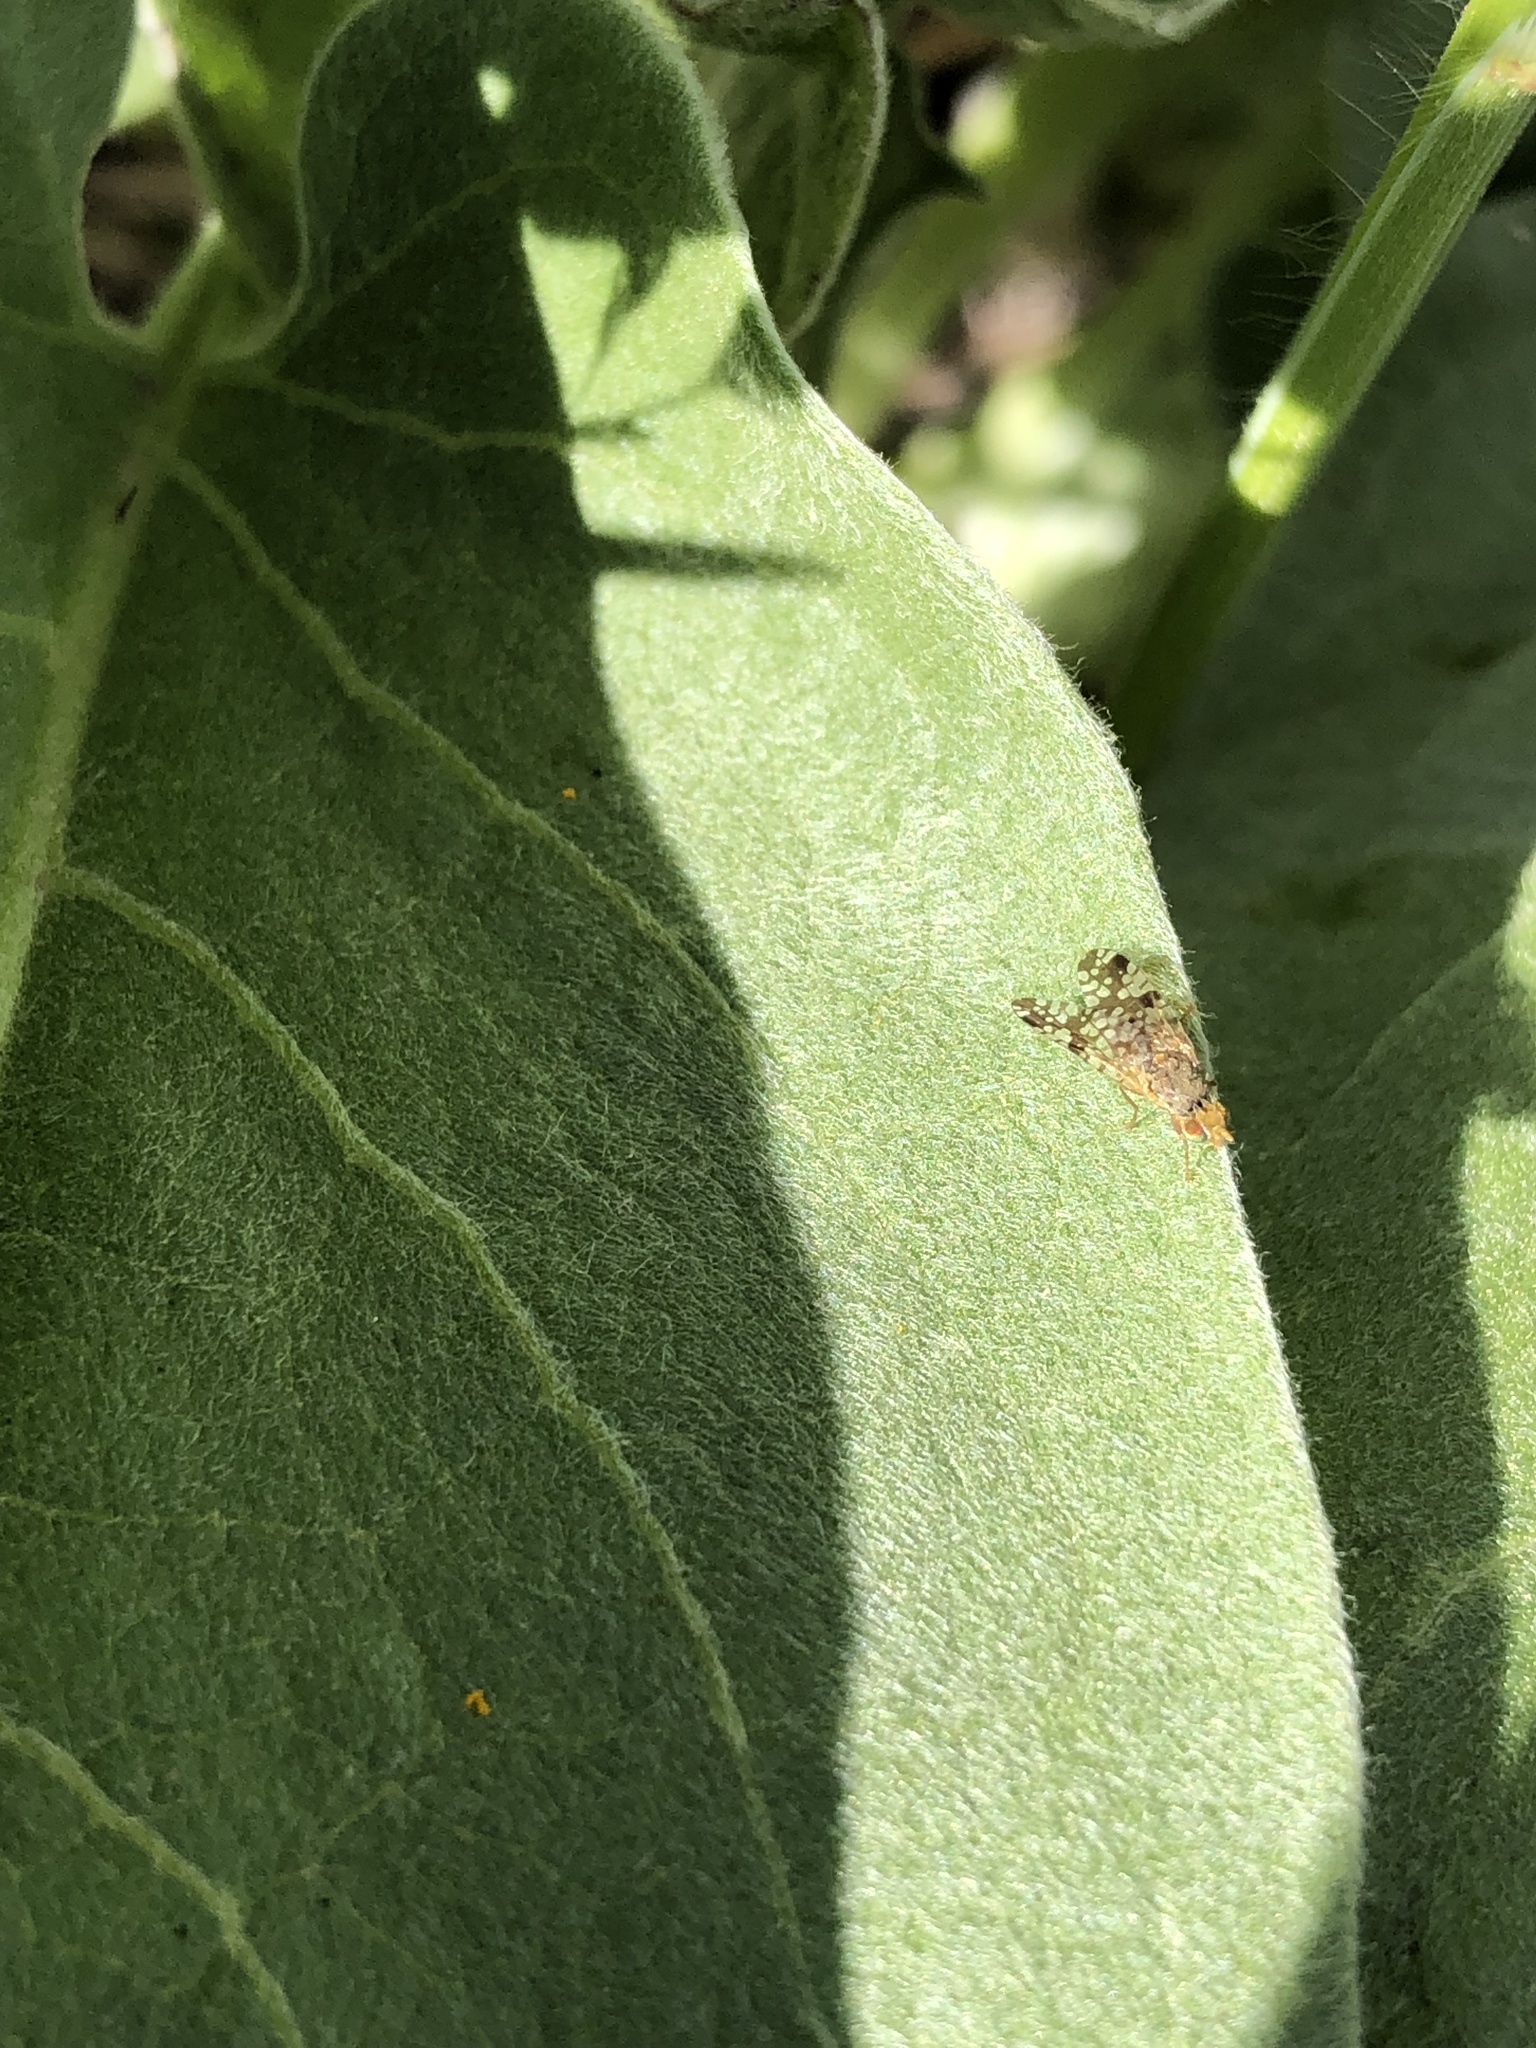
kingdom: Animalia
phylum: Arthropoda
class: Insecta
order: Diptera
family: Tephritidae
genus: Neotephritis
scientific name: Neotephritis finalis
